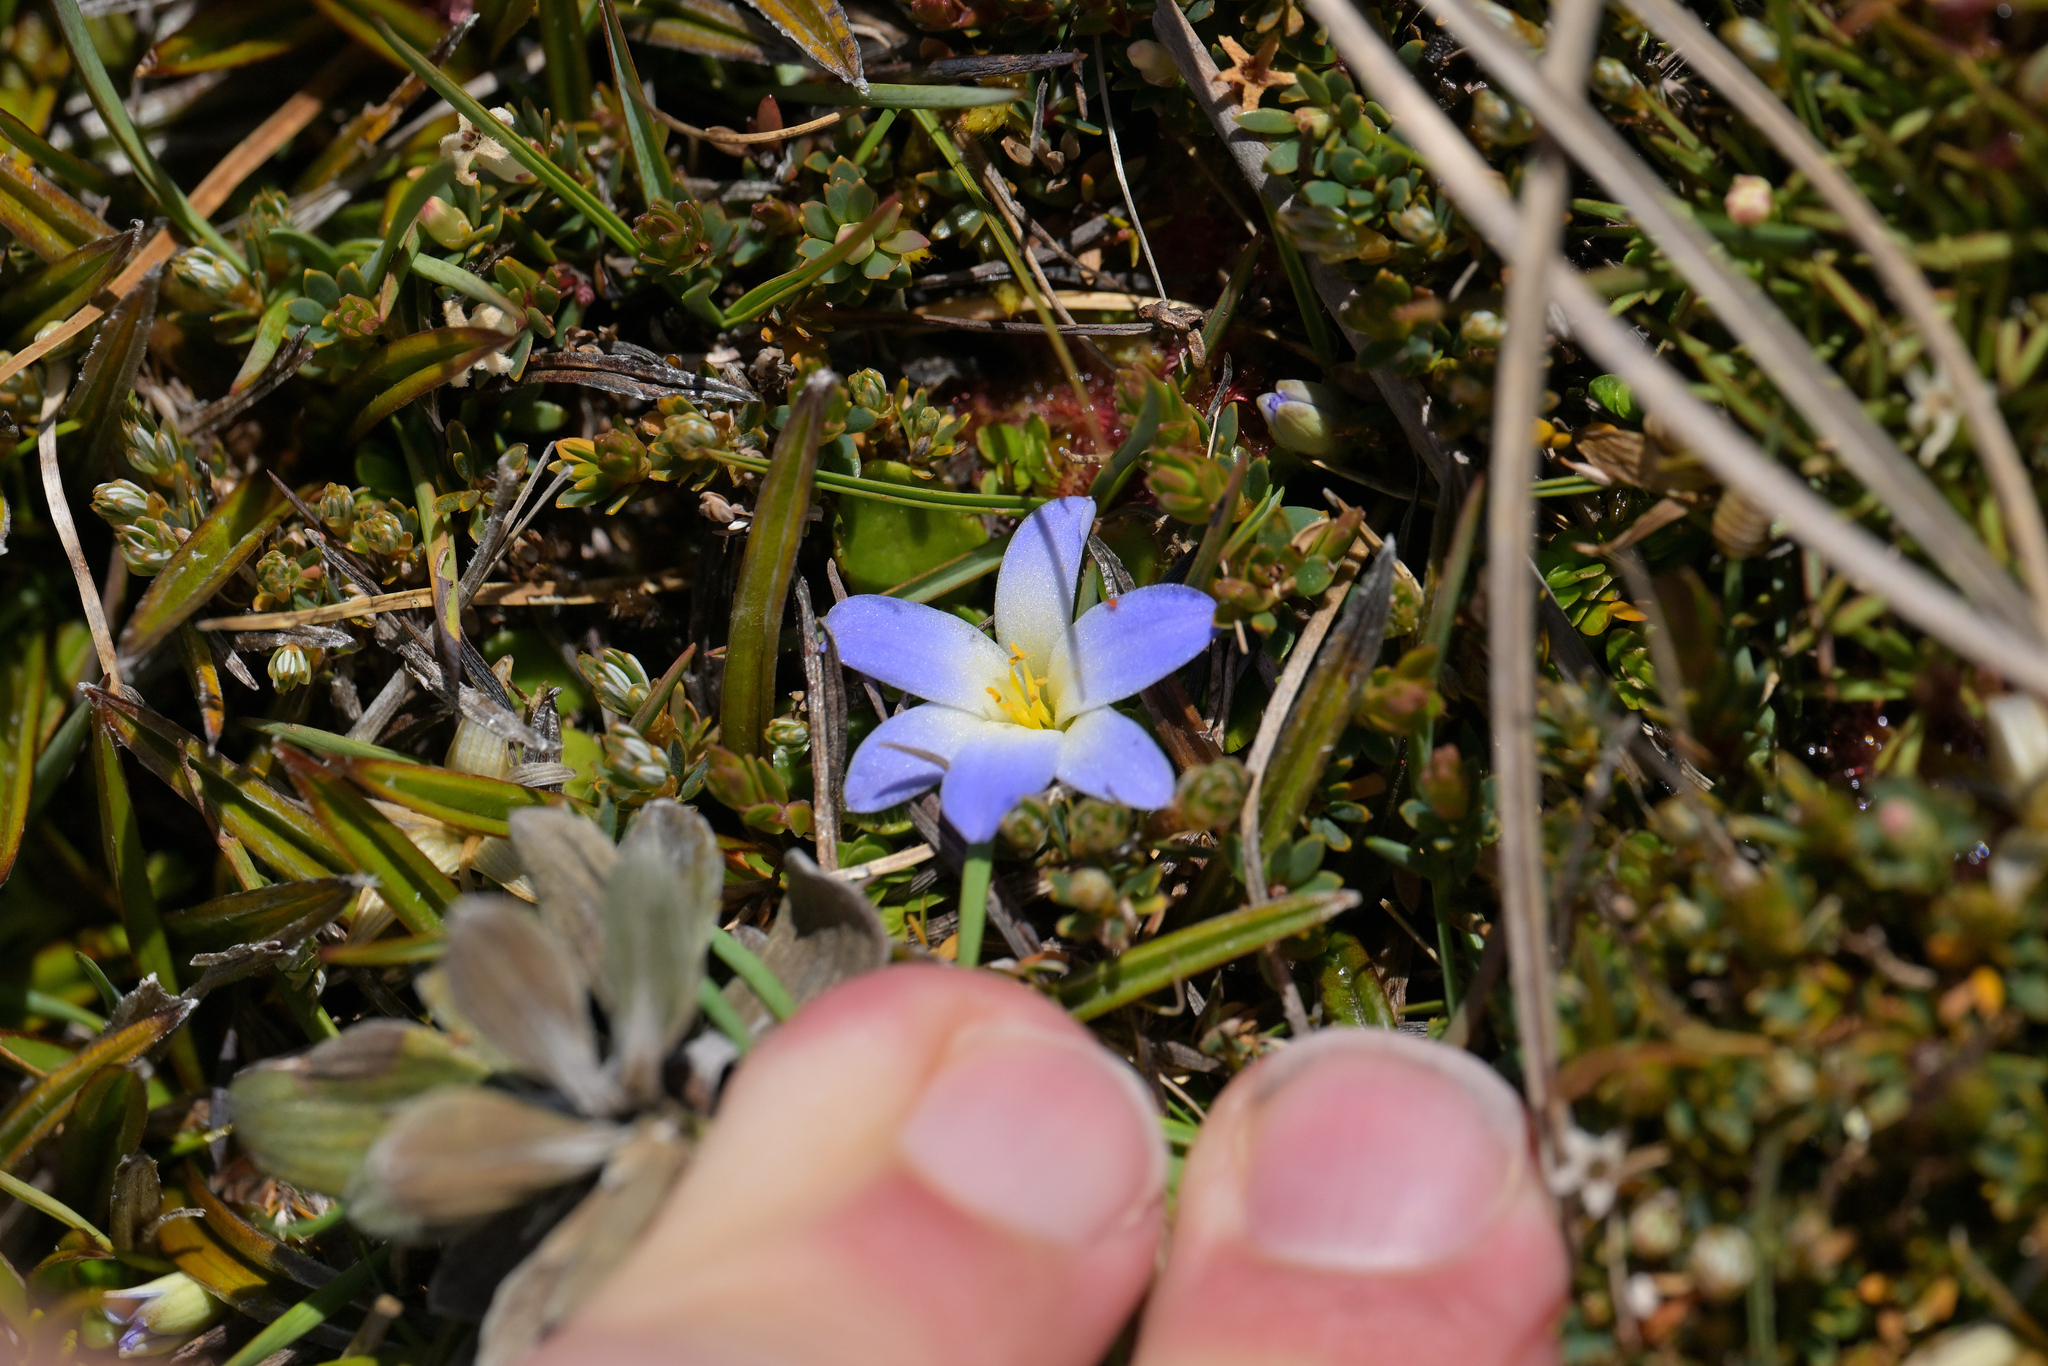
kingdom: Plantae
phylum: Tracheophyta
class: Liliopsida
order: Asparagales
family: Asphodelaceae
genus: Herpolirion
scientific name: Herpolirion novae-zelandiae
